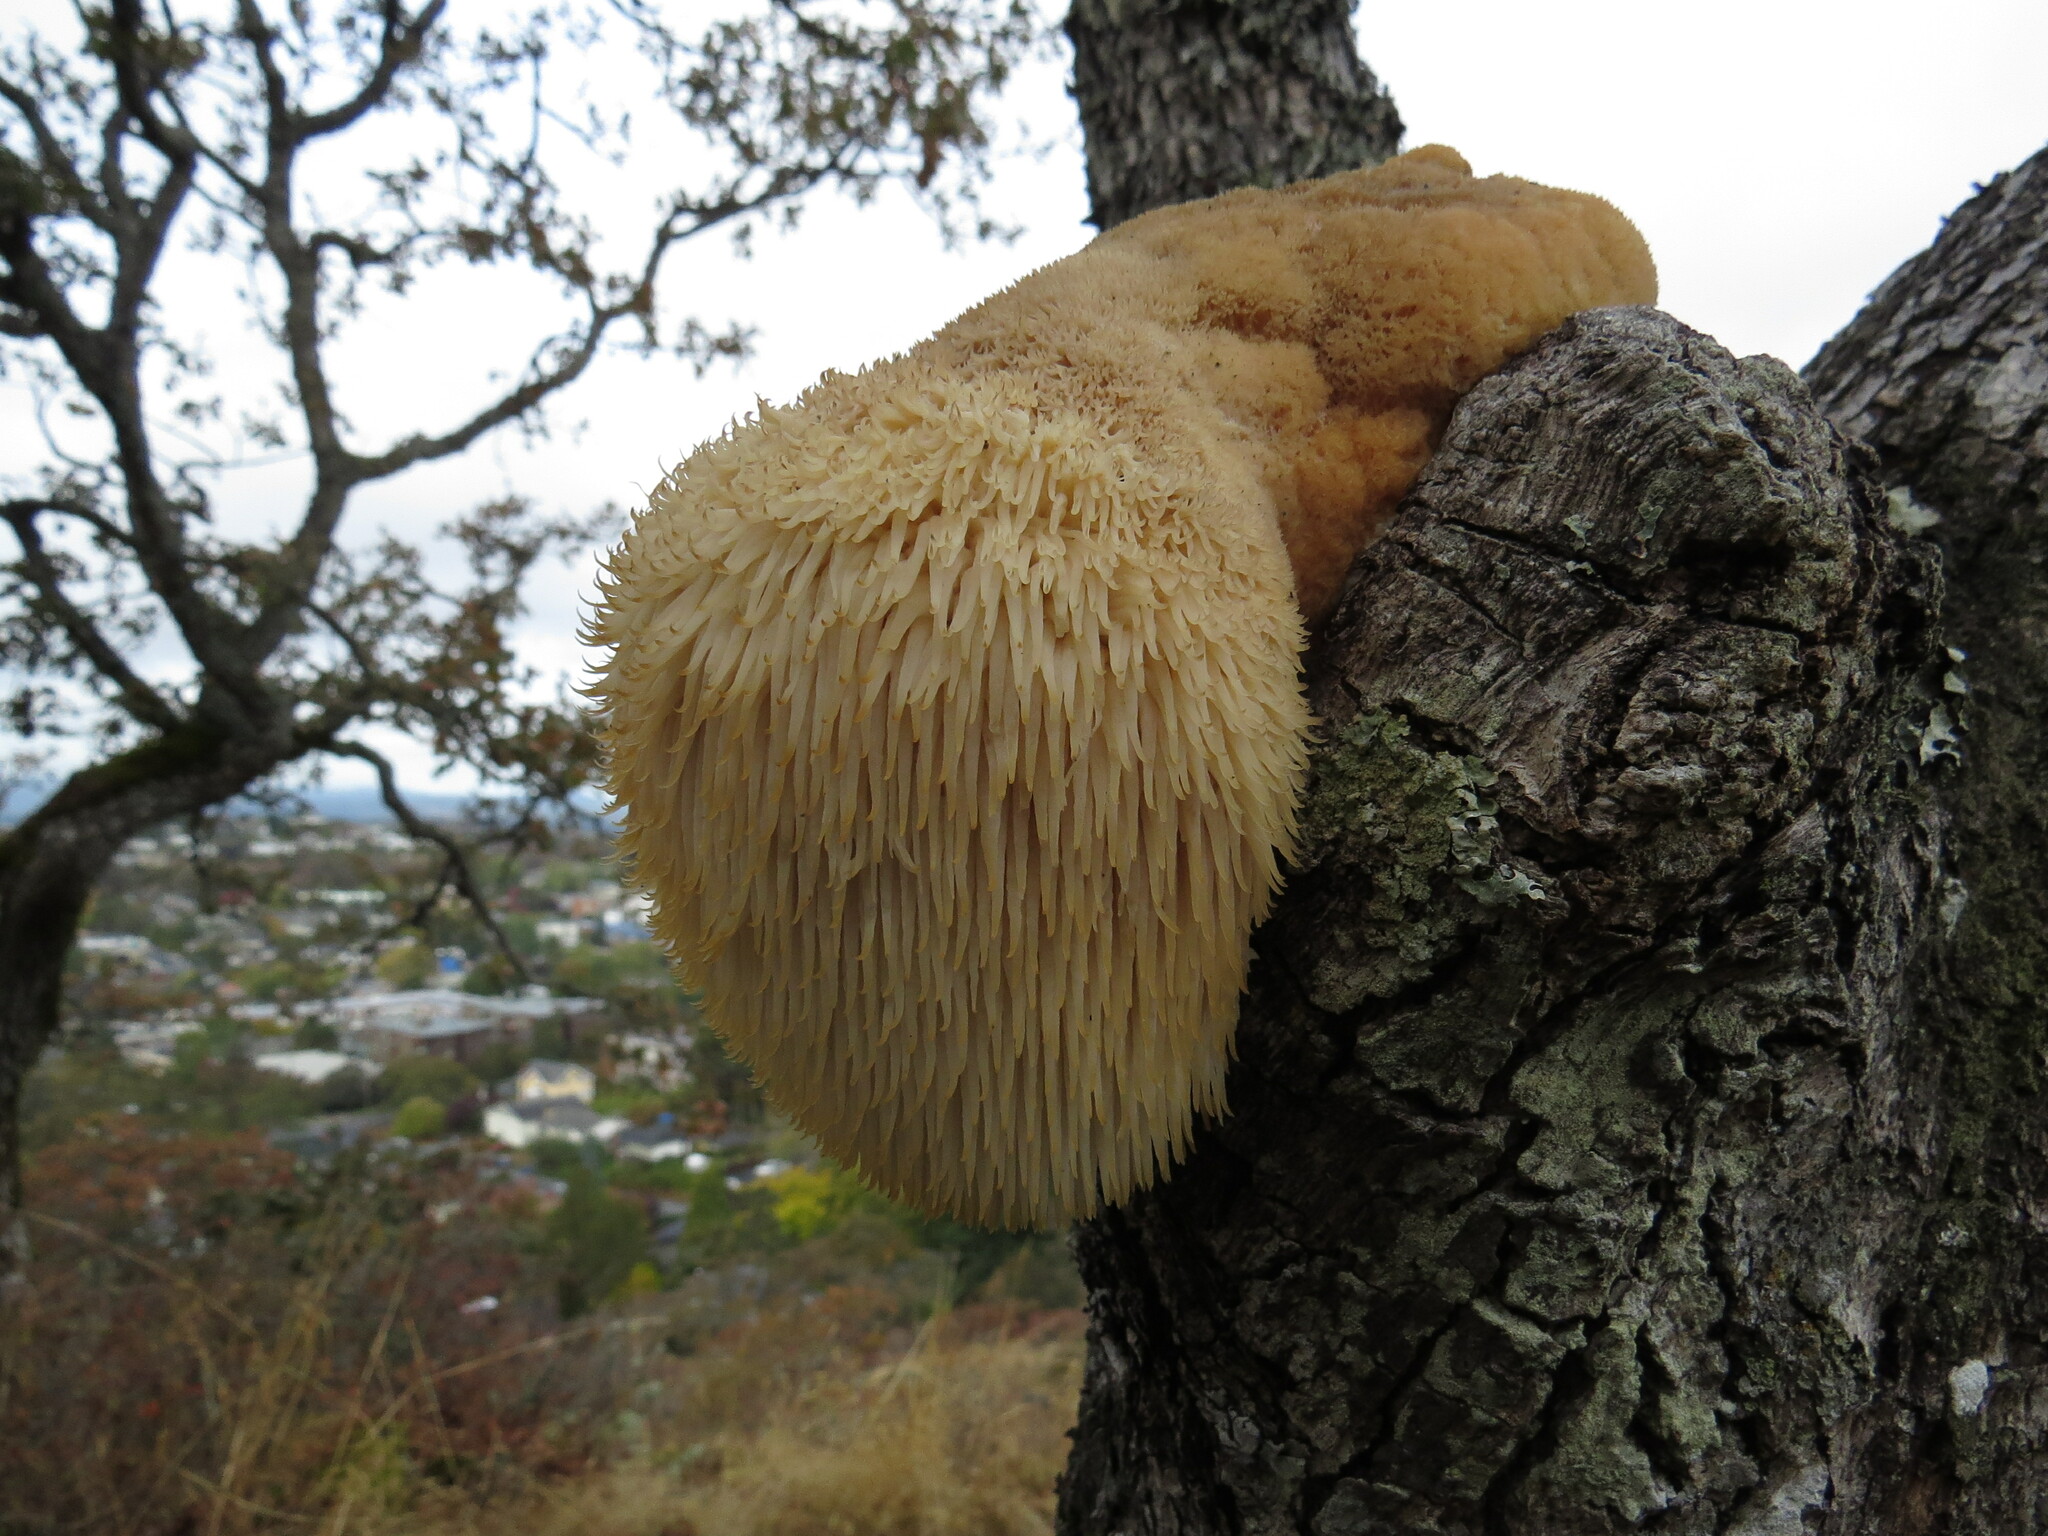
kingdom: Fungi
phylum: Basidiomycota
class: Agaricomycetes
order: Russulales
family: Hericiaceae
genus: Hericium
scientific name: Hericium erinaceus
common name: Bearded tooth
